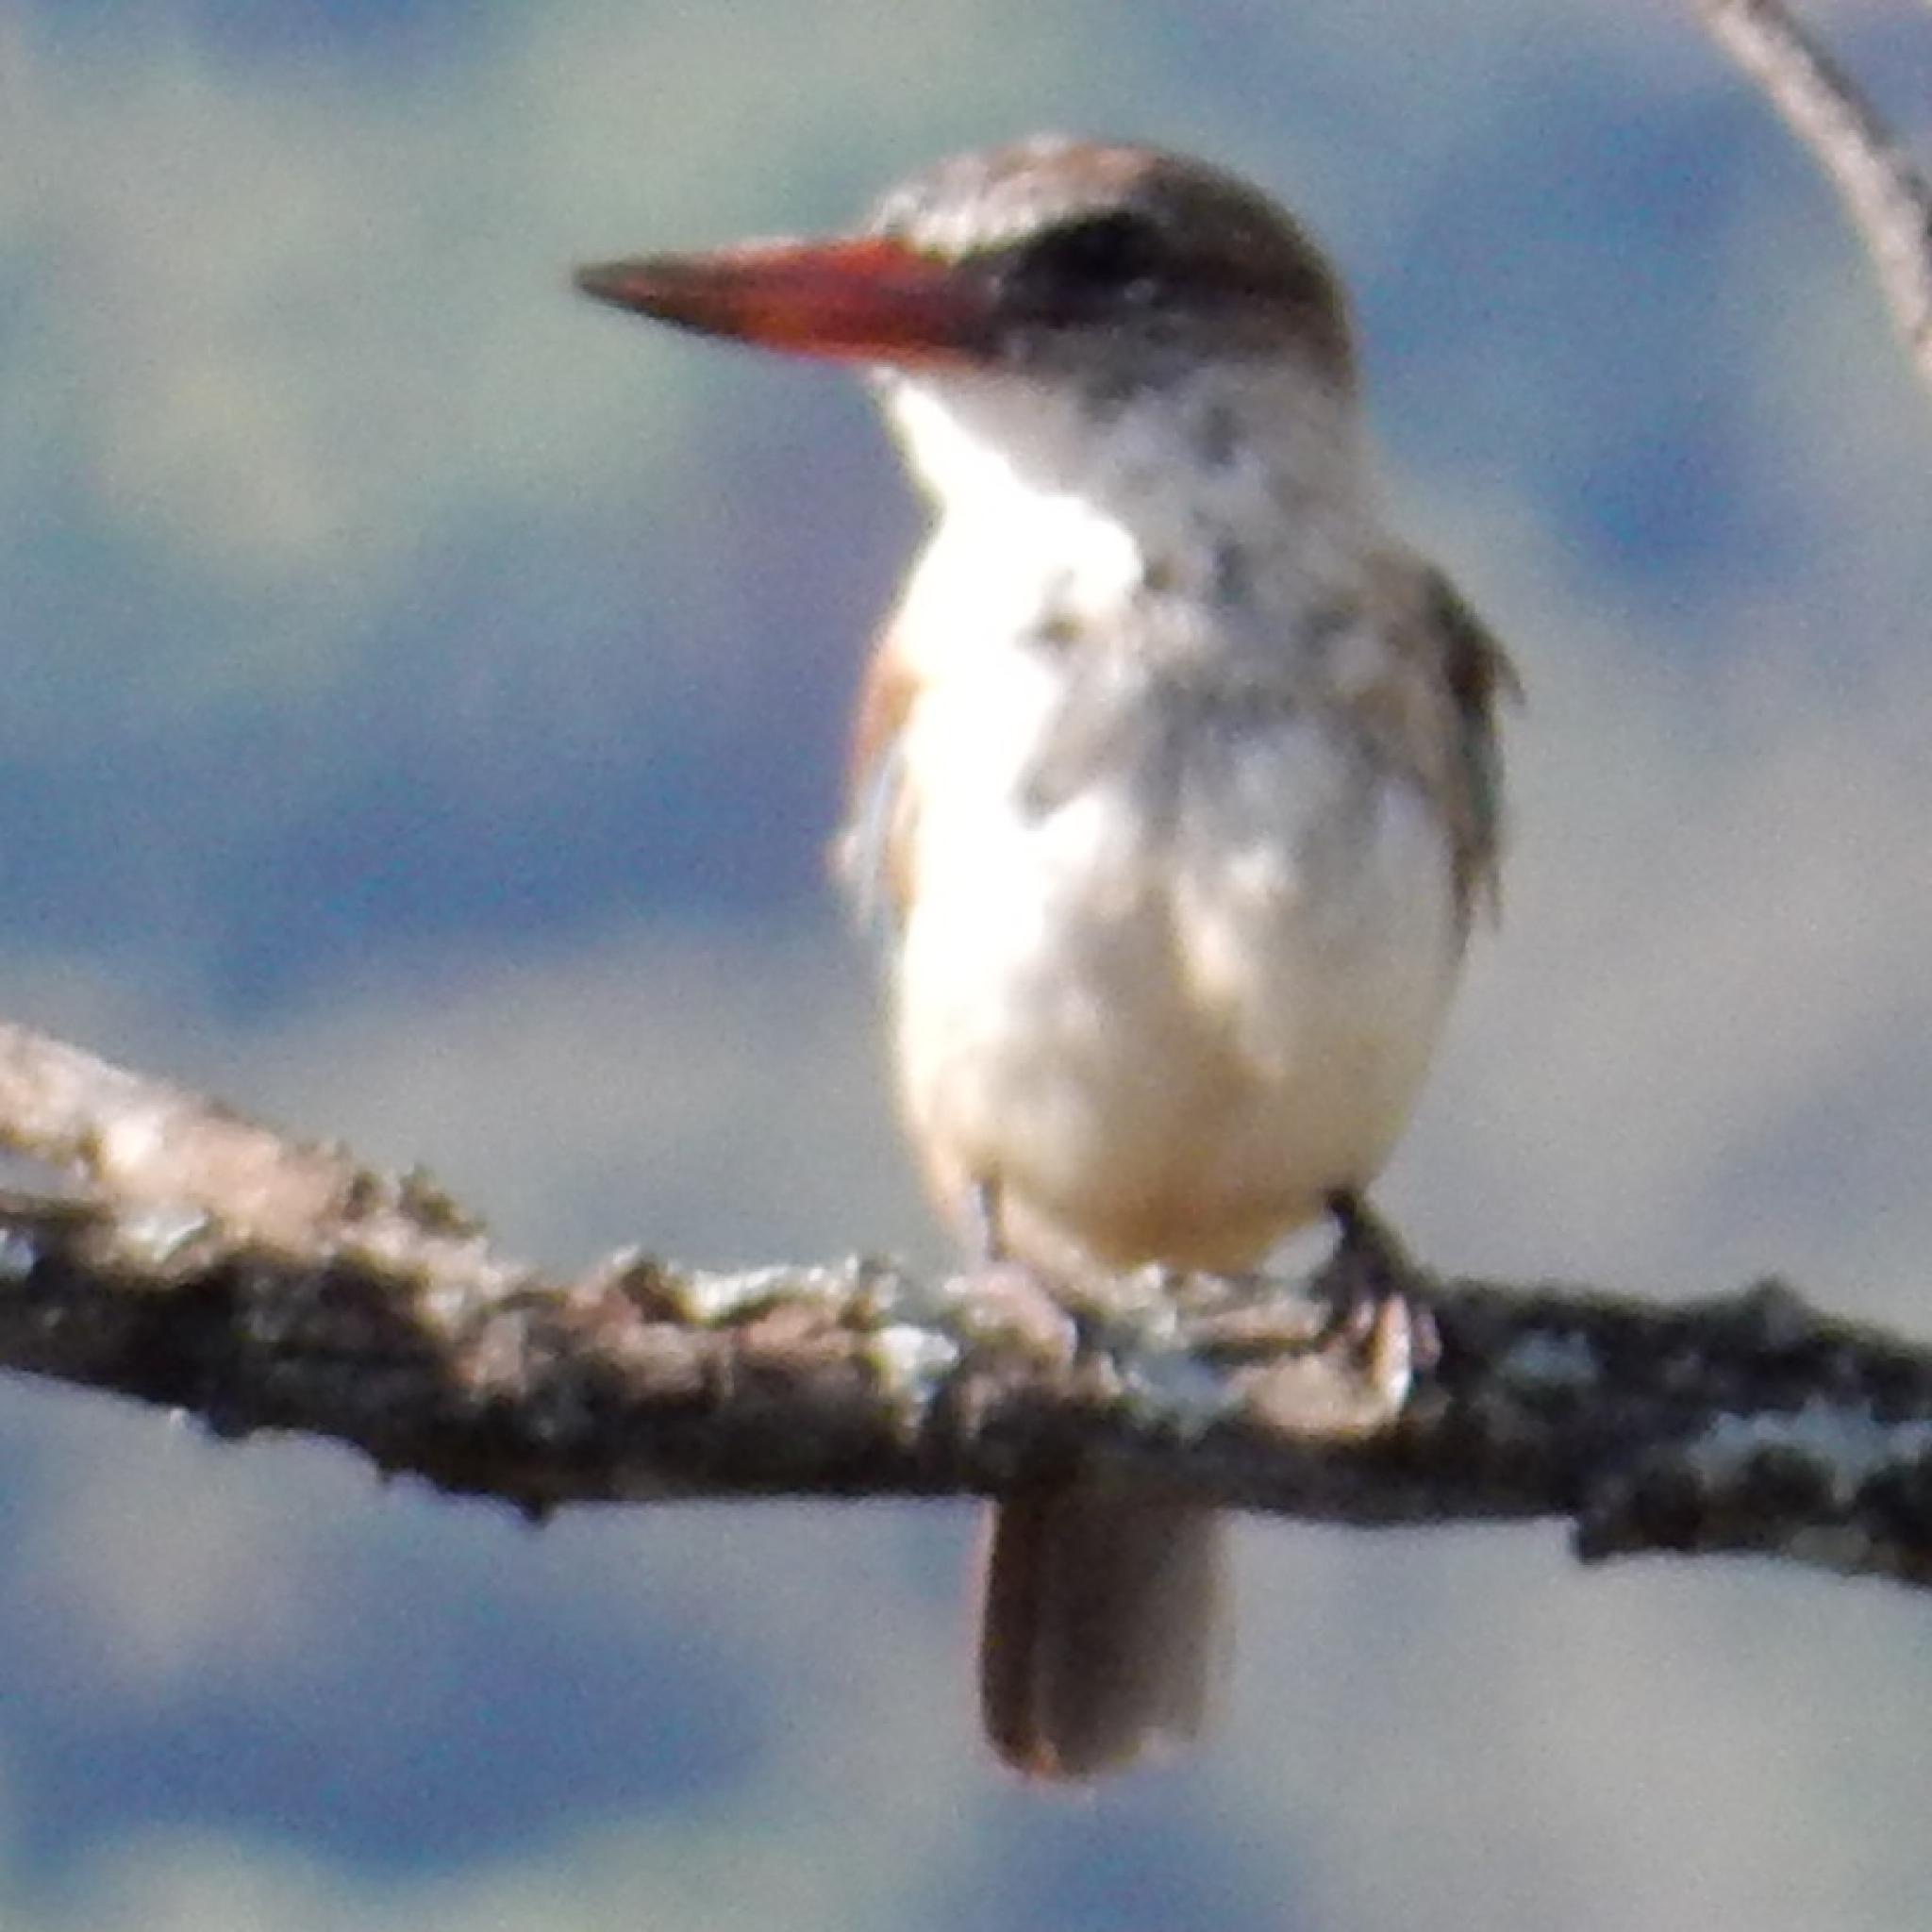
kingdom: Animalia
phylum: Chordata
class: Aves
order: Coraciiformes
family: Alcedinidae
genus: Halcyon
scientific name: Halcyon albiventris
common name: Brown-hooded kingfisher
